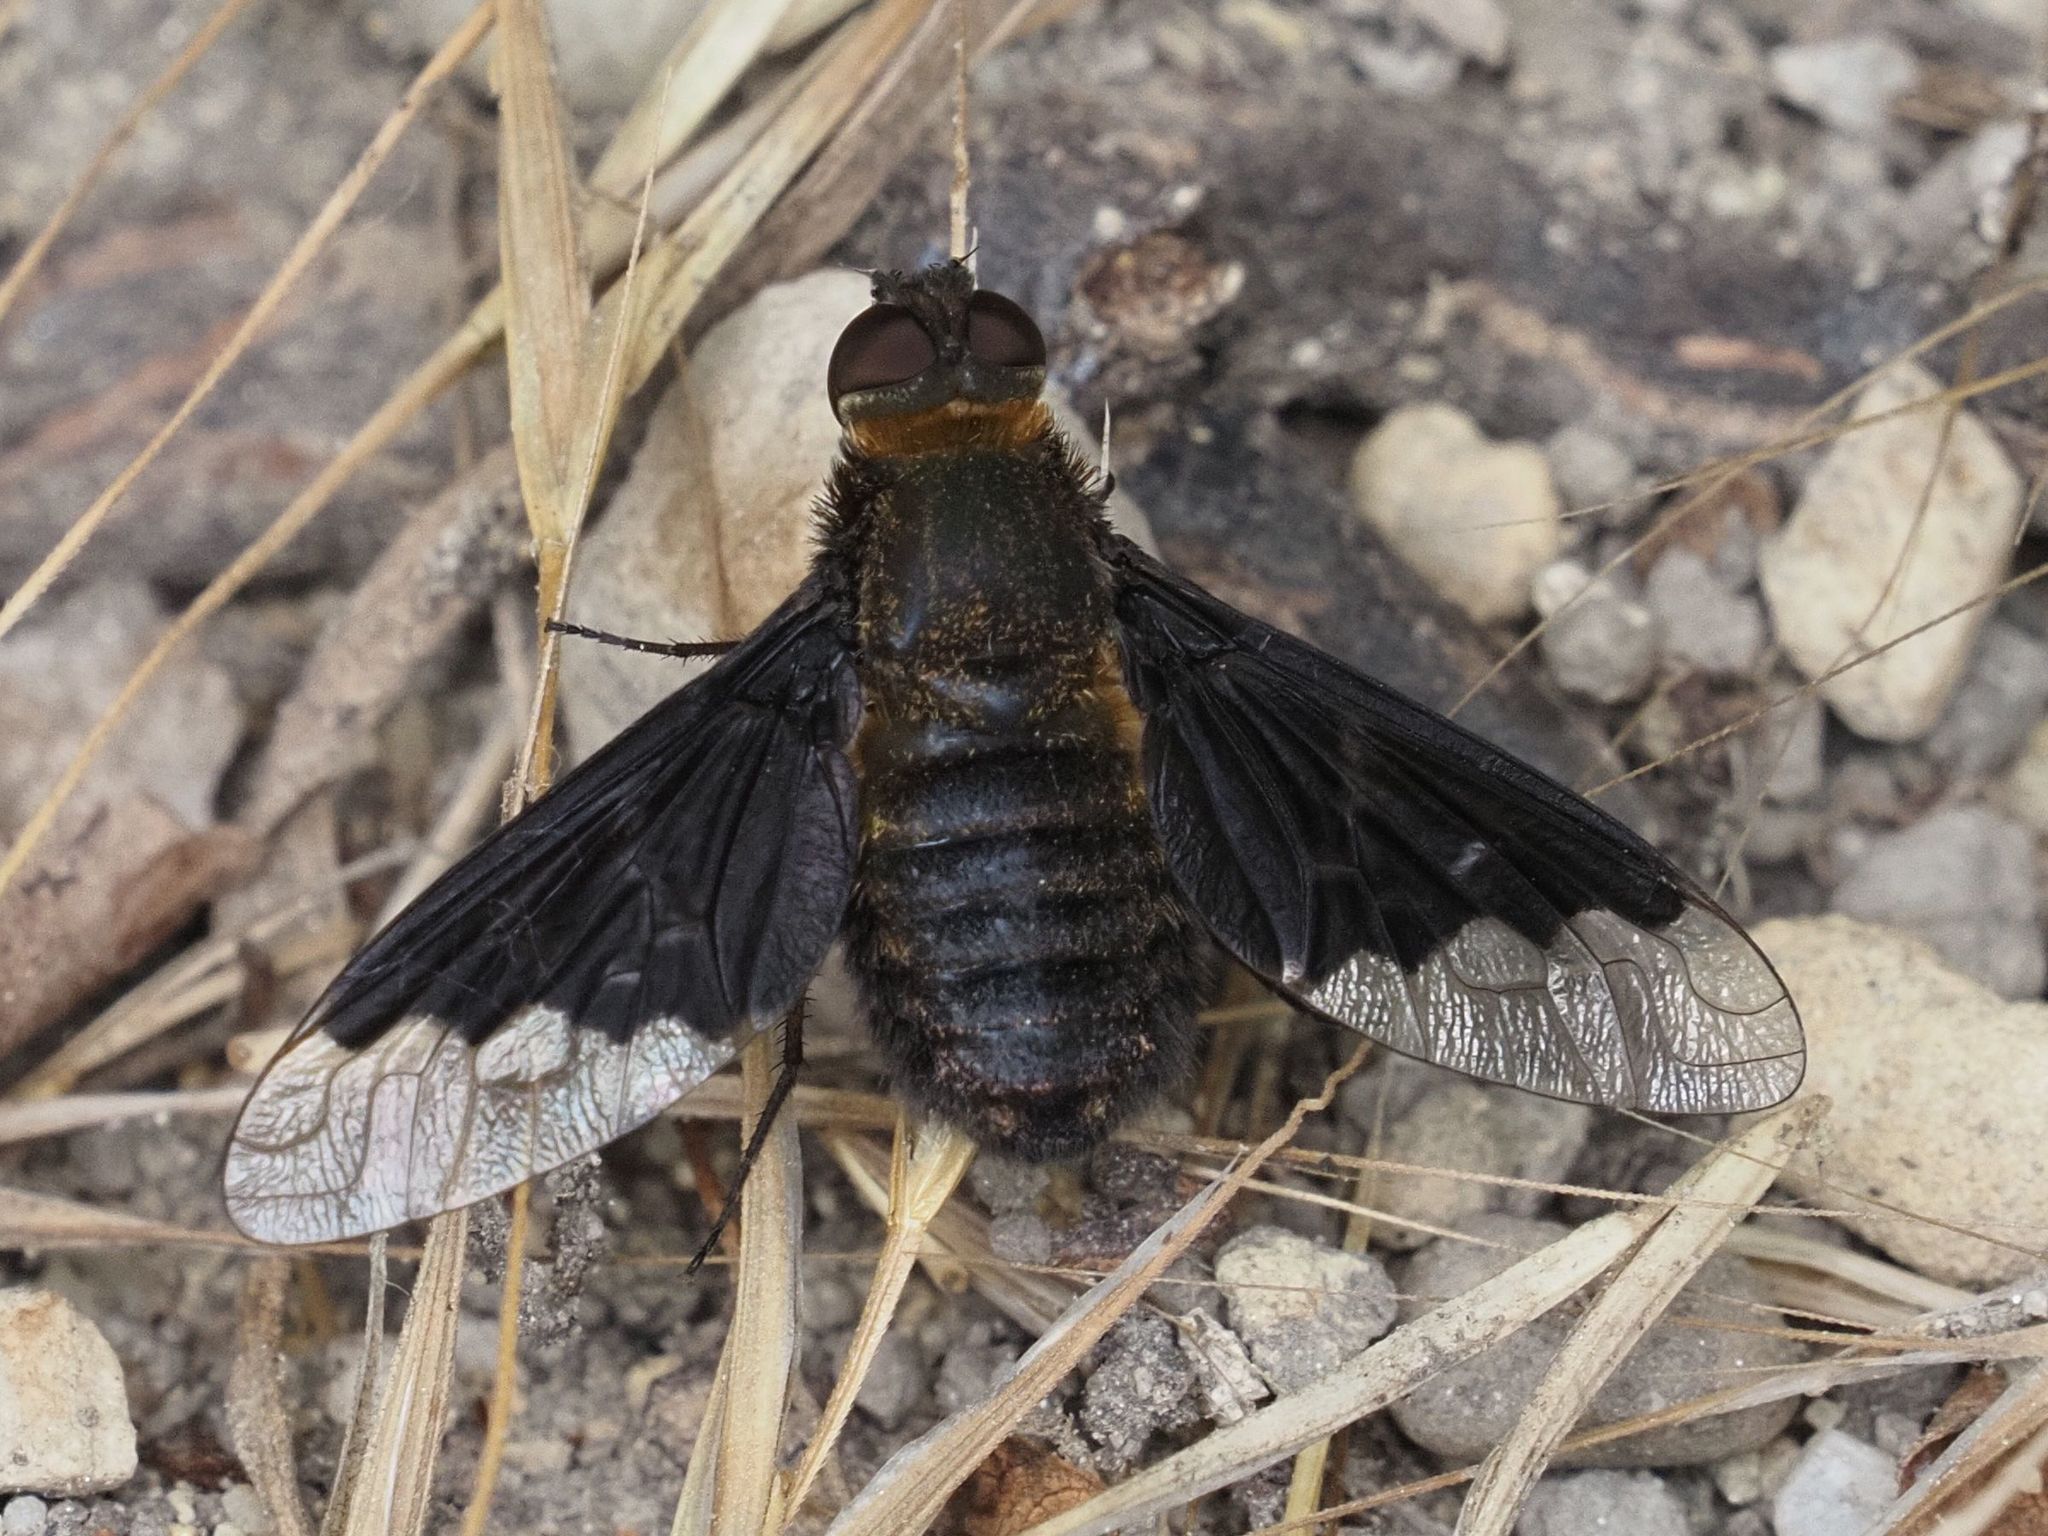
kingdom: Animalia
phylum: Arthropoda
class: Insecta
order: Diptera
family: Bombyliidae
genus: Hemipenthes
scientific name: Hemipenthes morio
